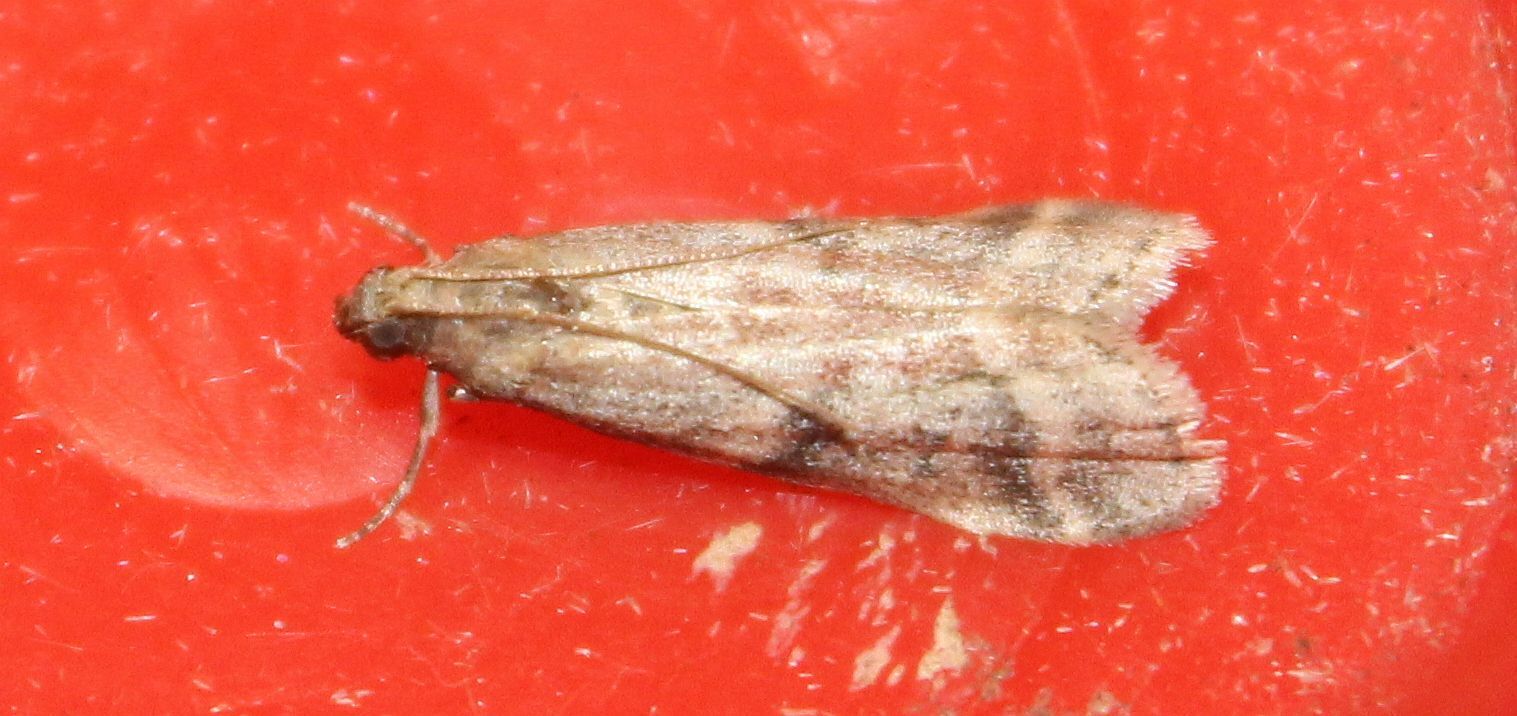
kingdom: Animalia
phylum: Arthropoda
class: Insecta
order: Lepidoptera
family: Pyralidae
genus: Ephestia
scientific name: Ephestia woodiella
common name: False cacao moth
